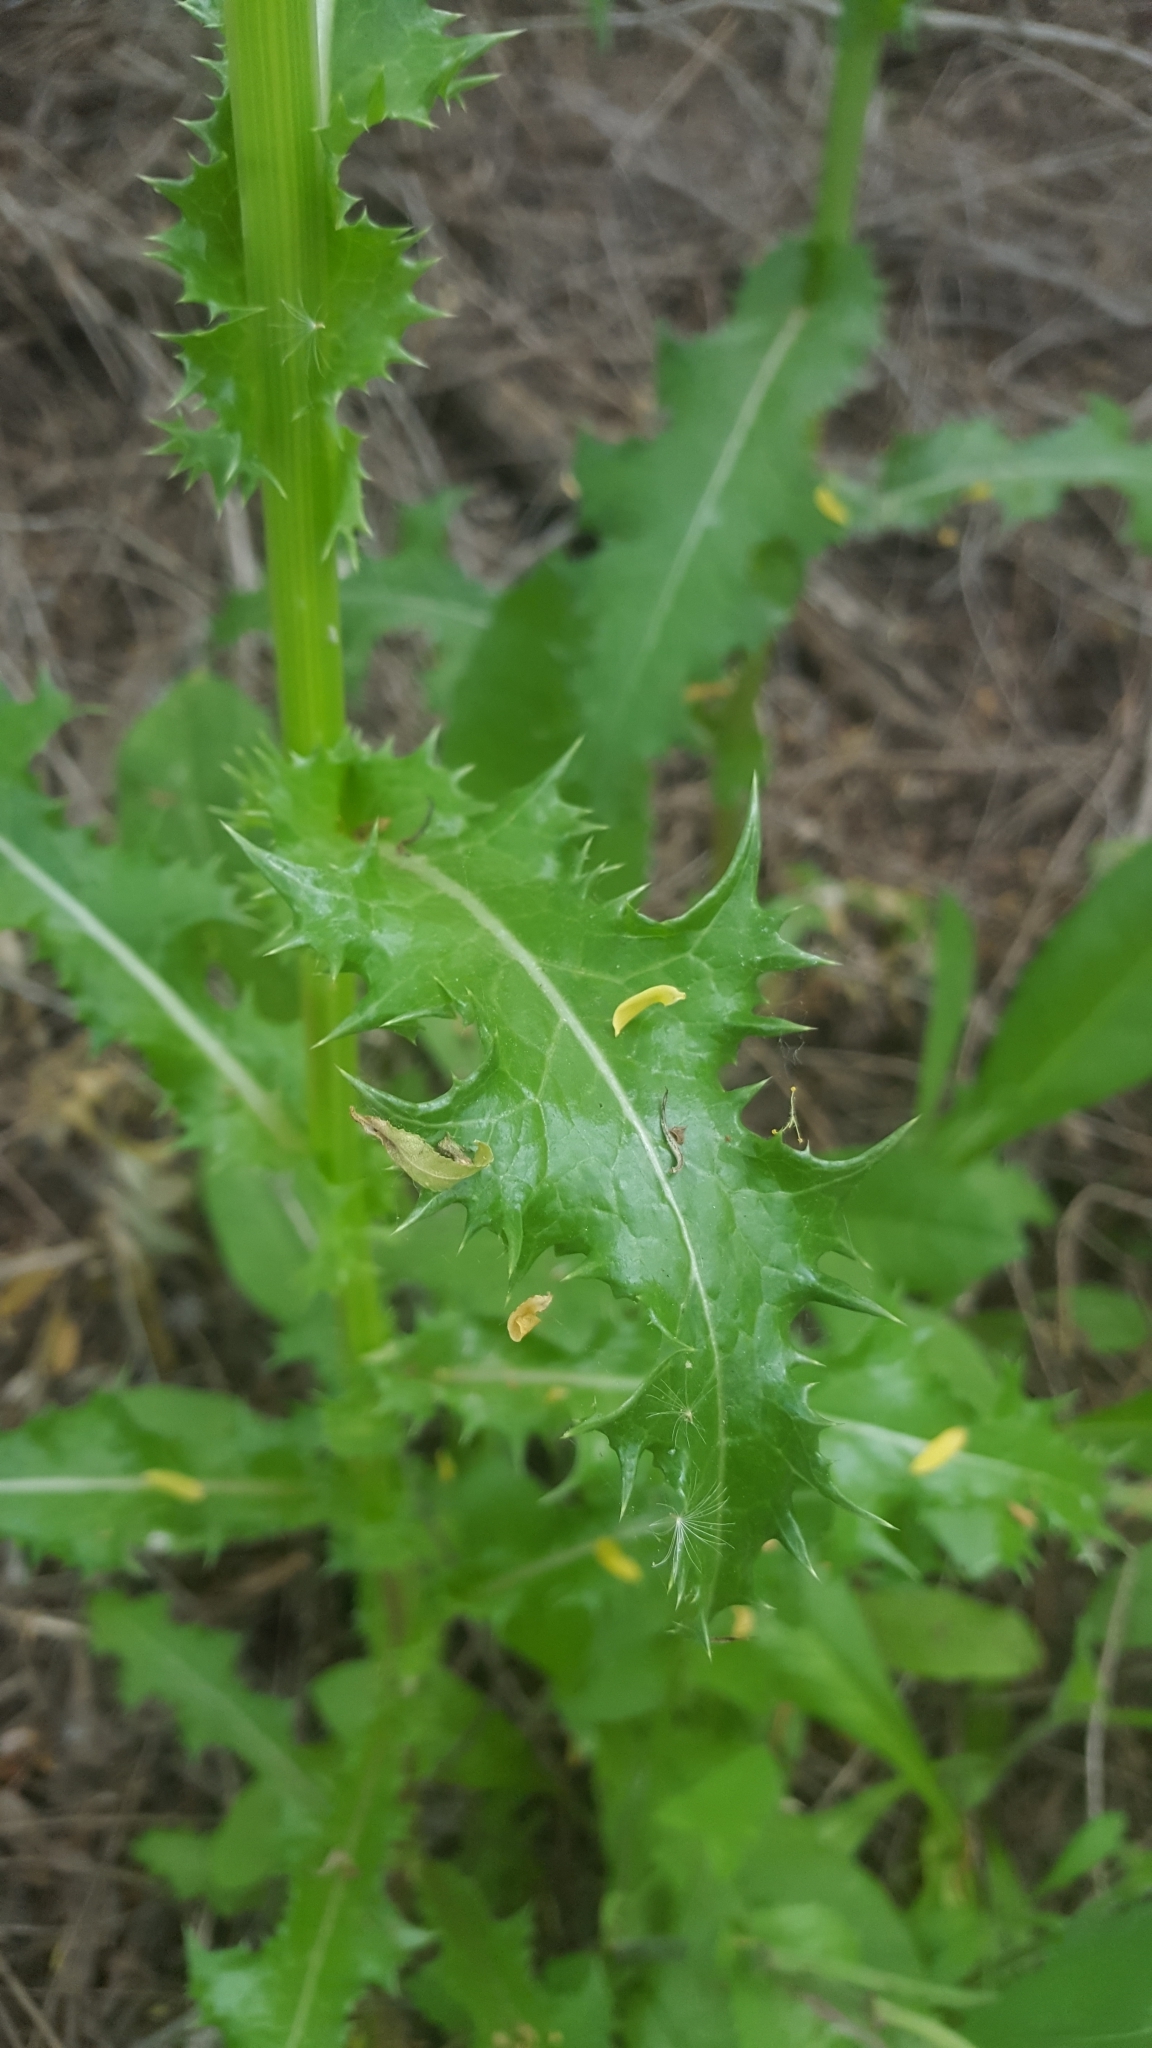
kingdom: Plantae
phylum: Tracheophyta
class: Magnoliopsida
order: Asterales
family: Asteraceae
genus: Sonchus
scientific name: Sonchus asper
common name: Prickly sow-thistle
